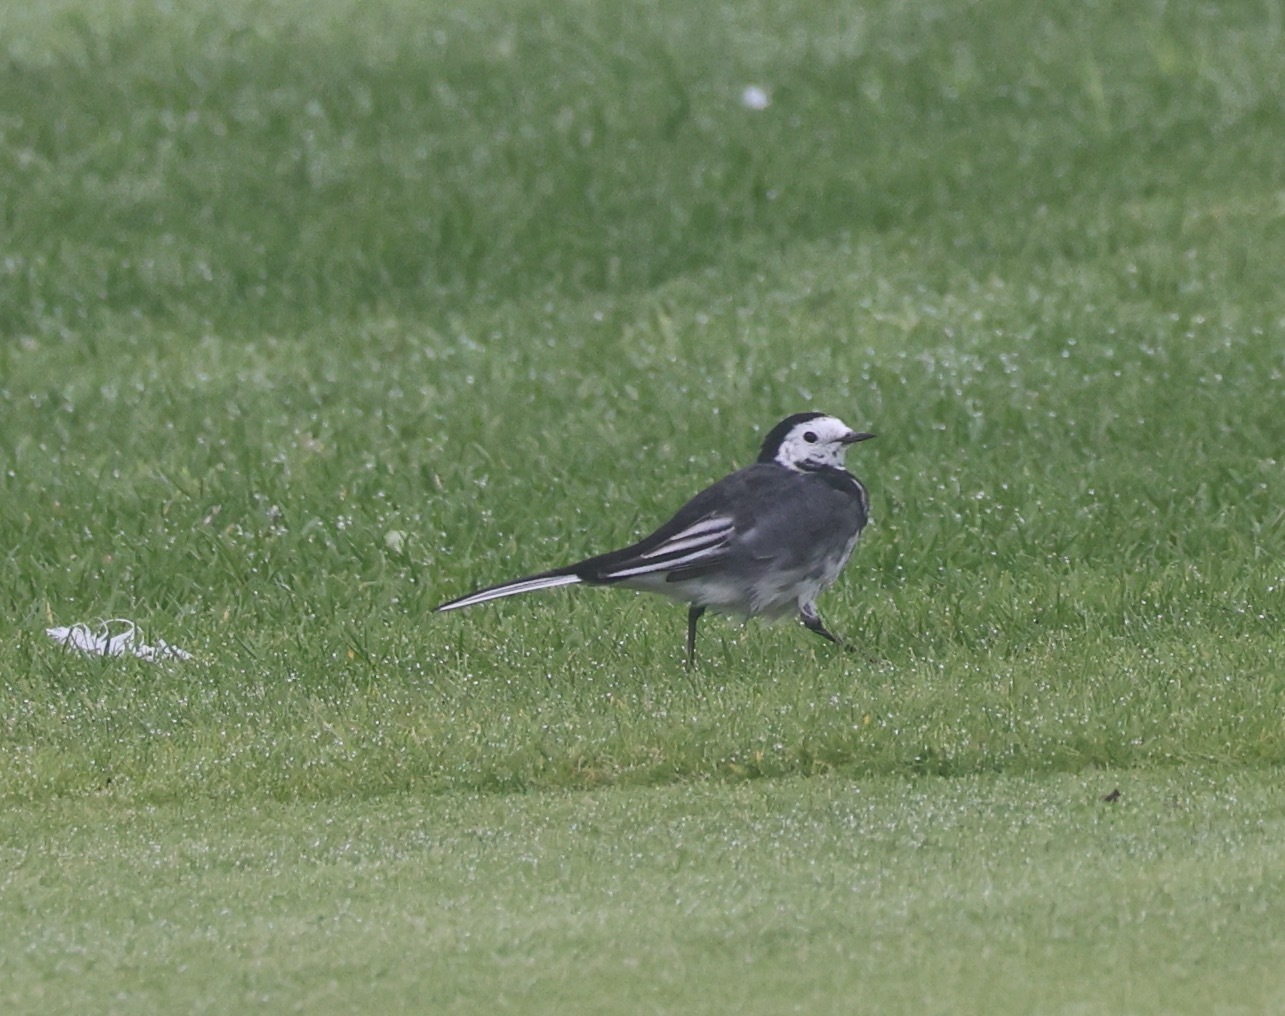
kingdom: Animalia
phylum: Chordata
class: Aves
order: Passeriformes
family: Motacillidae
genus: Motacilla
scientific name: Motacilla alba
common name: White wagtail
